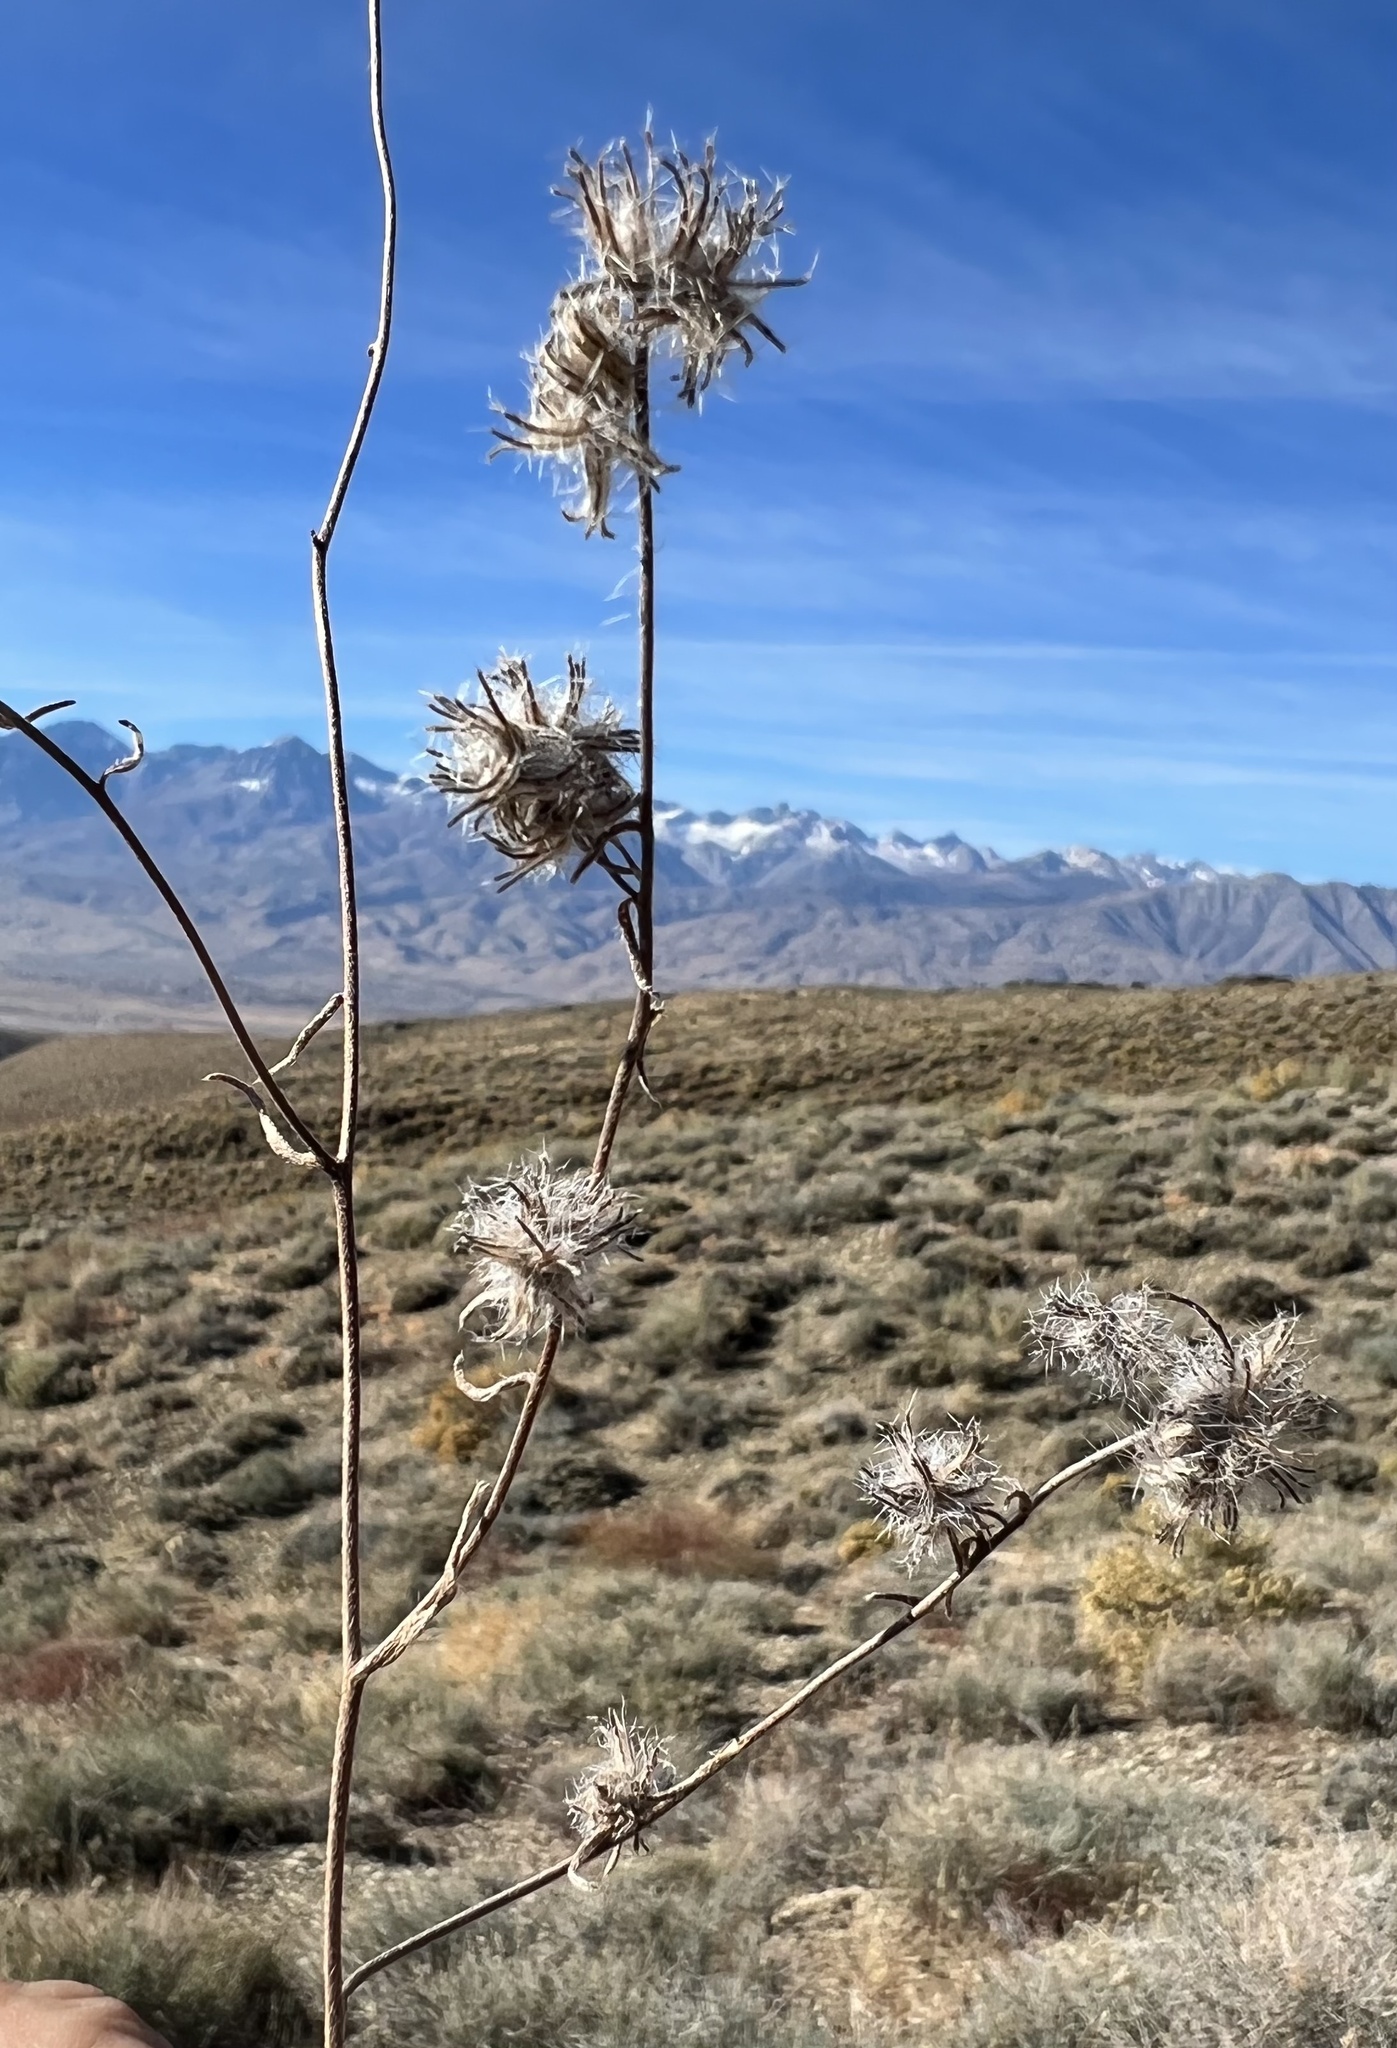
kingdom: Plantae
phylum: Tracheophyta
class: Magnoliopsida
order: Boraginales
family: Boraginaceae
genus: Cryptantha
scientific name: Cryptantha nevadensis
